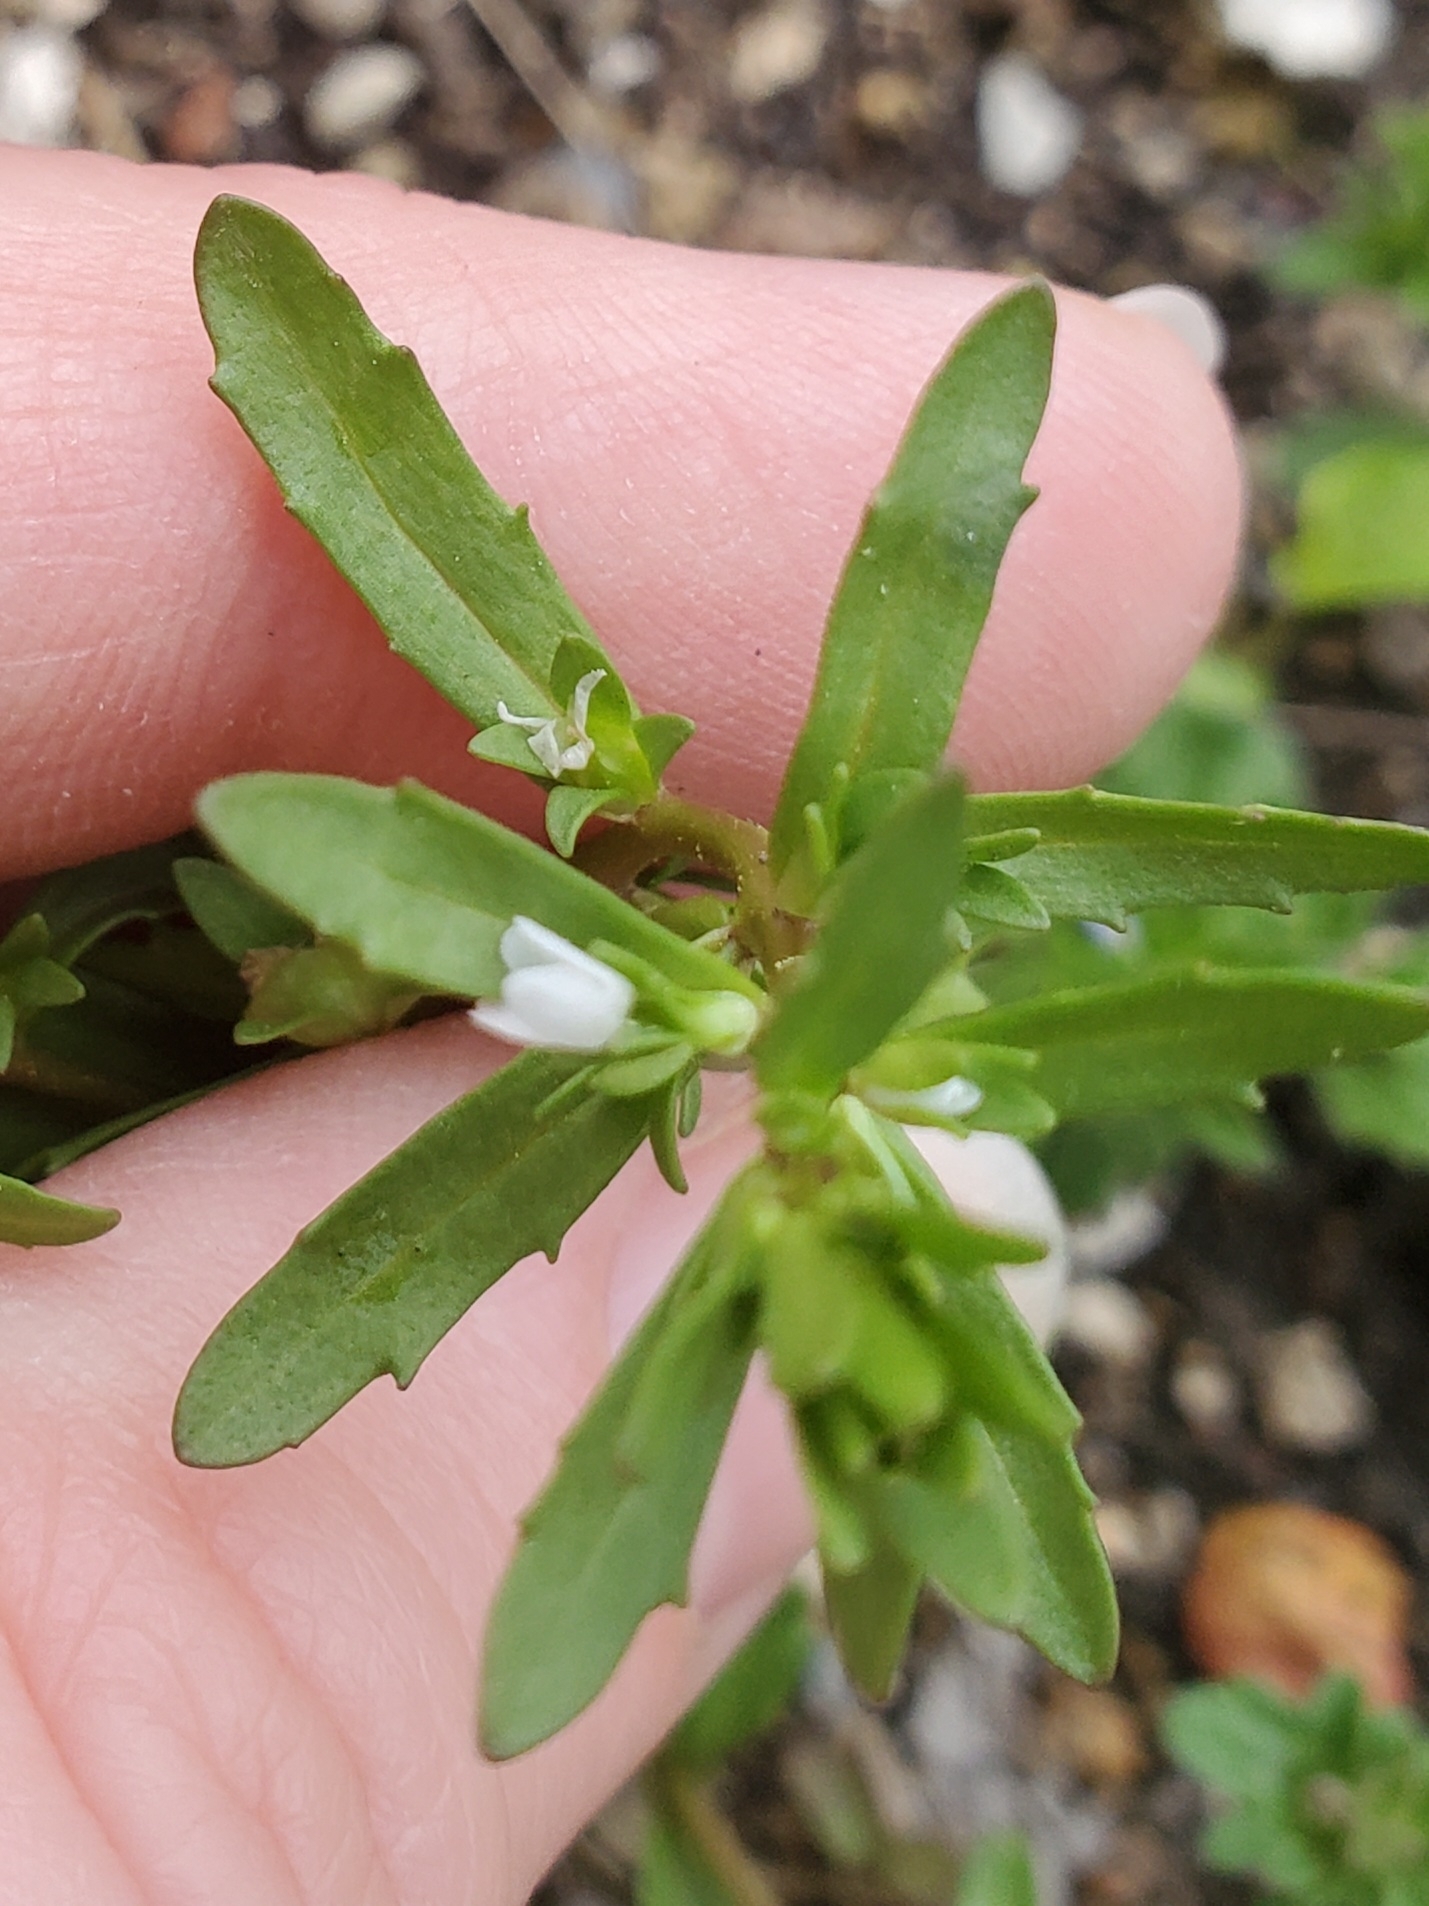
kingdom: Plantae
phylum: Tracheophyta
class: Magnoliopsida
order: Lamiales
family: Plantaginaceae
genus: Veronica
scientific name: Veronica peregrina
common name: Neckweed
